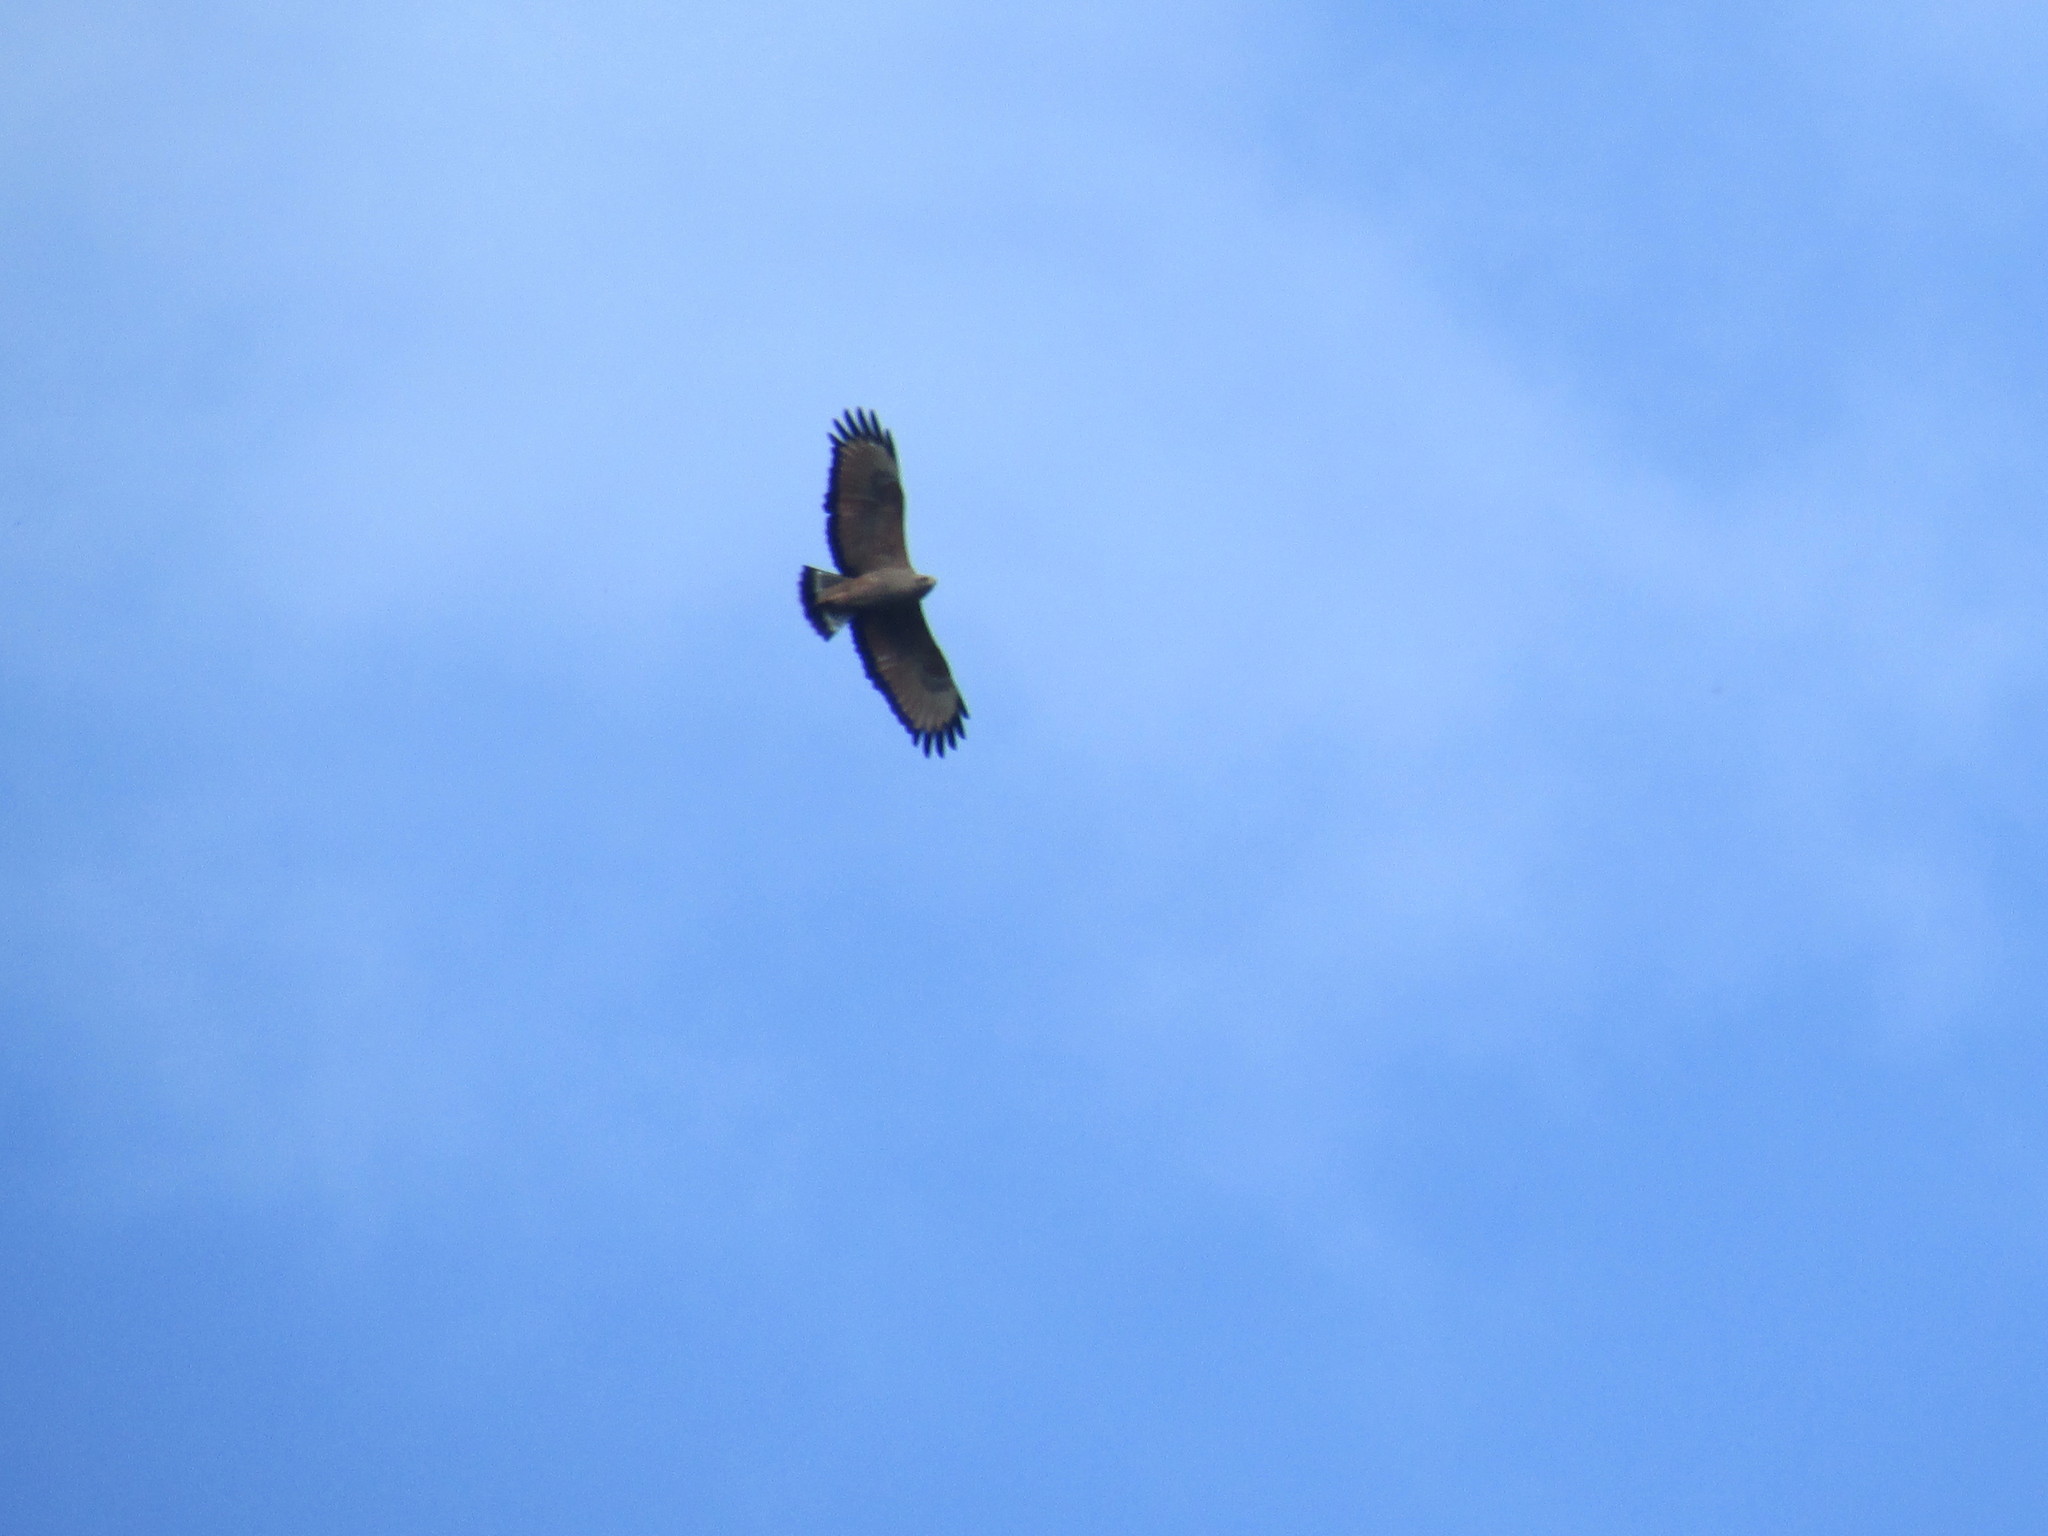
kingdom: Animalia
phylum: Chordata
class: Aves
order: Accipitriformes
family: Accipitridae
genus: Buteogallus
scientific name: Buteogallus meridionalis
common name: Savanna hawk
